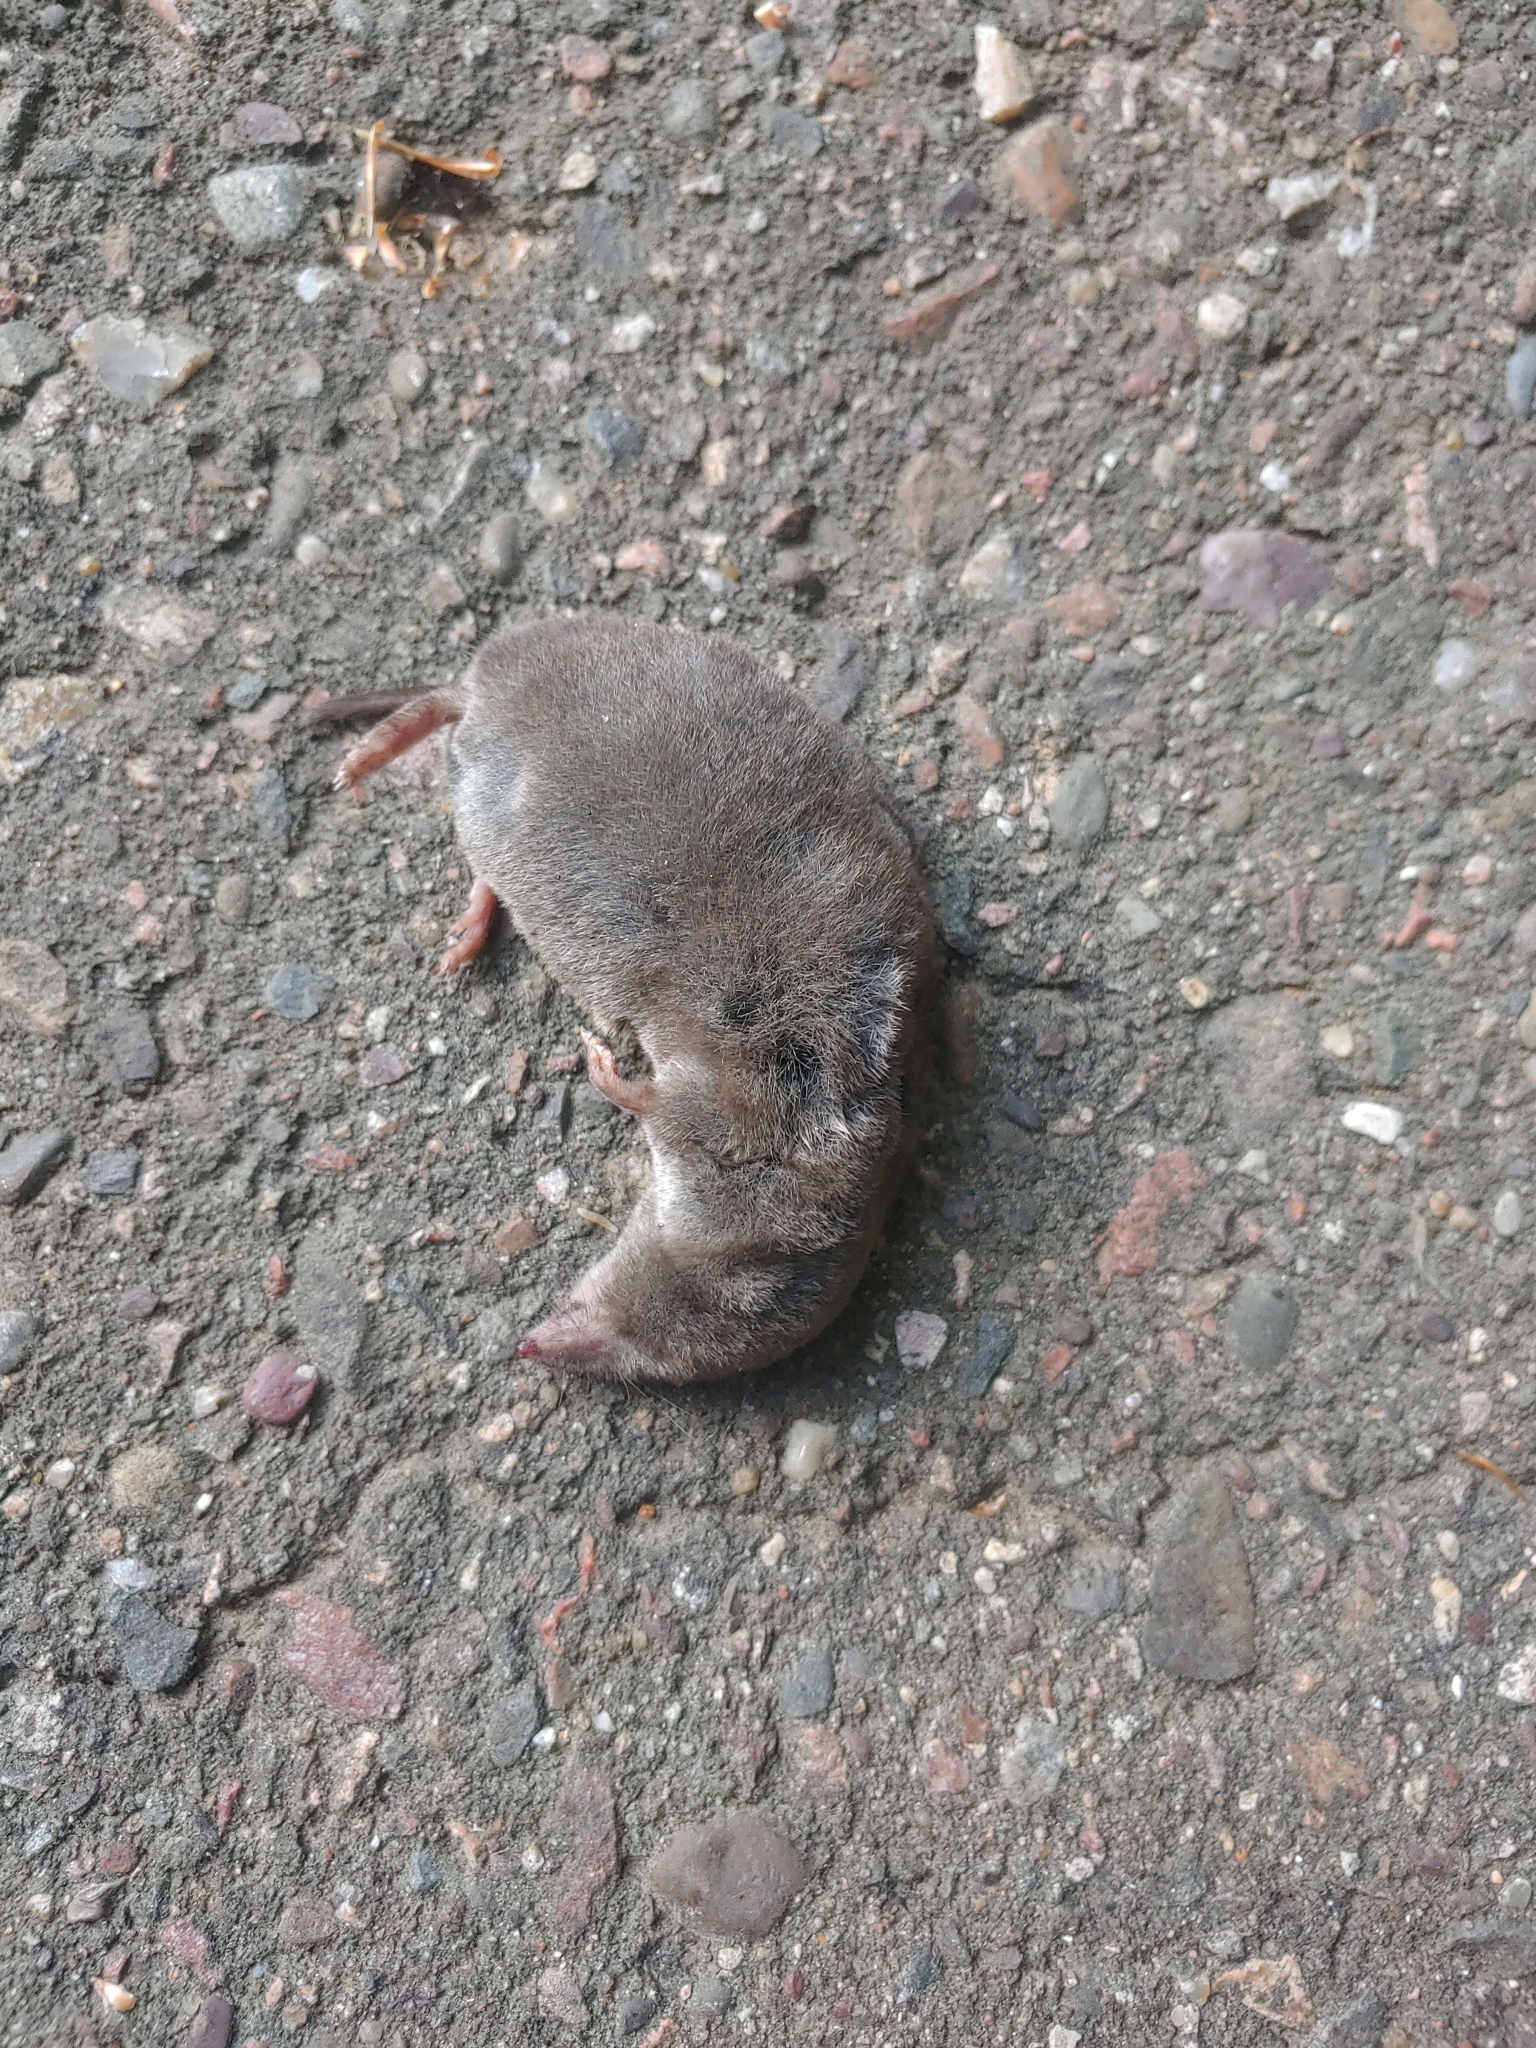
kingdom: Animalia
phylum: Chordata
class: Mammalia
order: Soricomorpha
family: Soricidae
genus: Blarina
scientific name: Blarina brevicauda
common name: Northern short-tailed shrew
